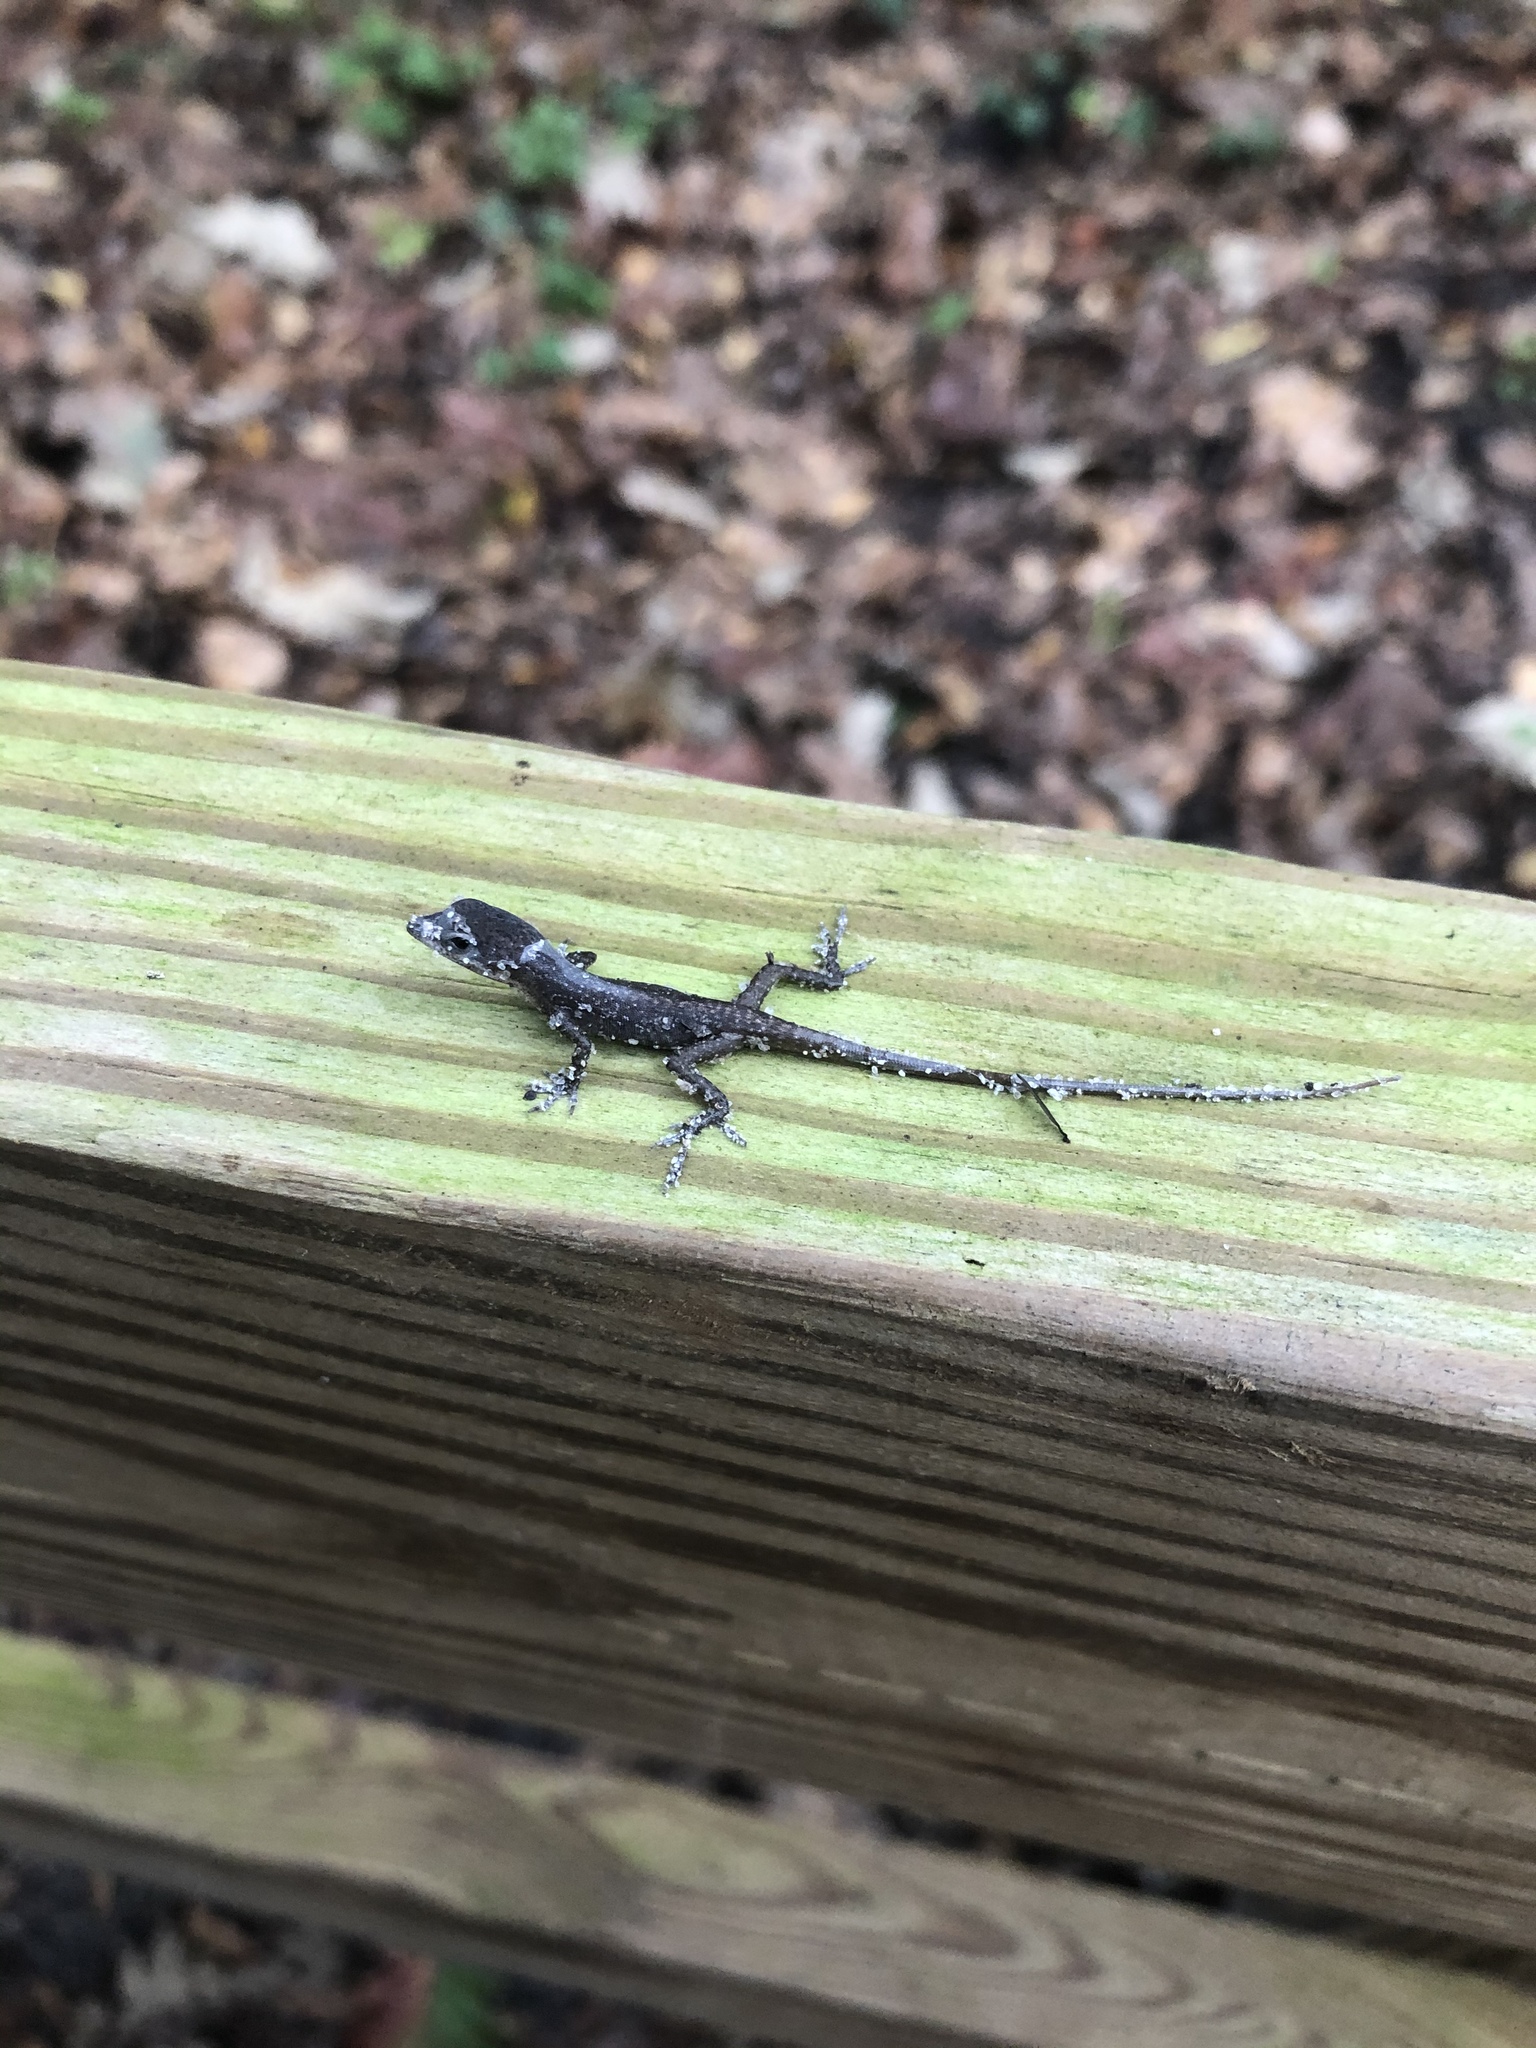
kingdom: Animalia
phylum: Chordata
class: Squamata
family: Dactyloidae
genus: Anolis
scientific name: Anolis carolinensis
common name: Green anole
